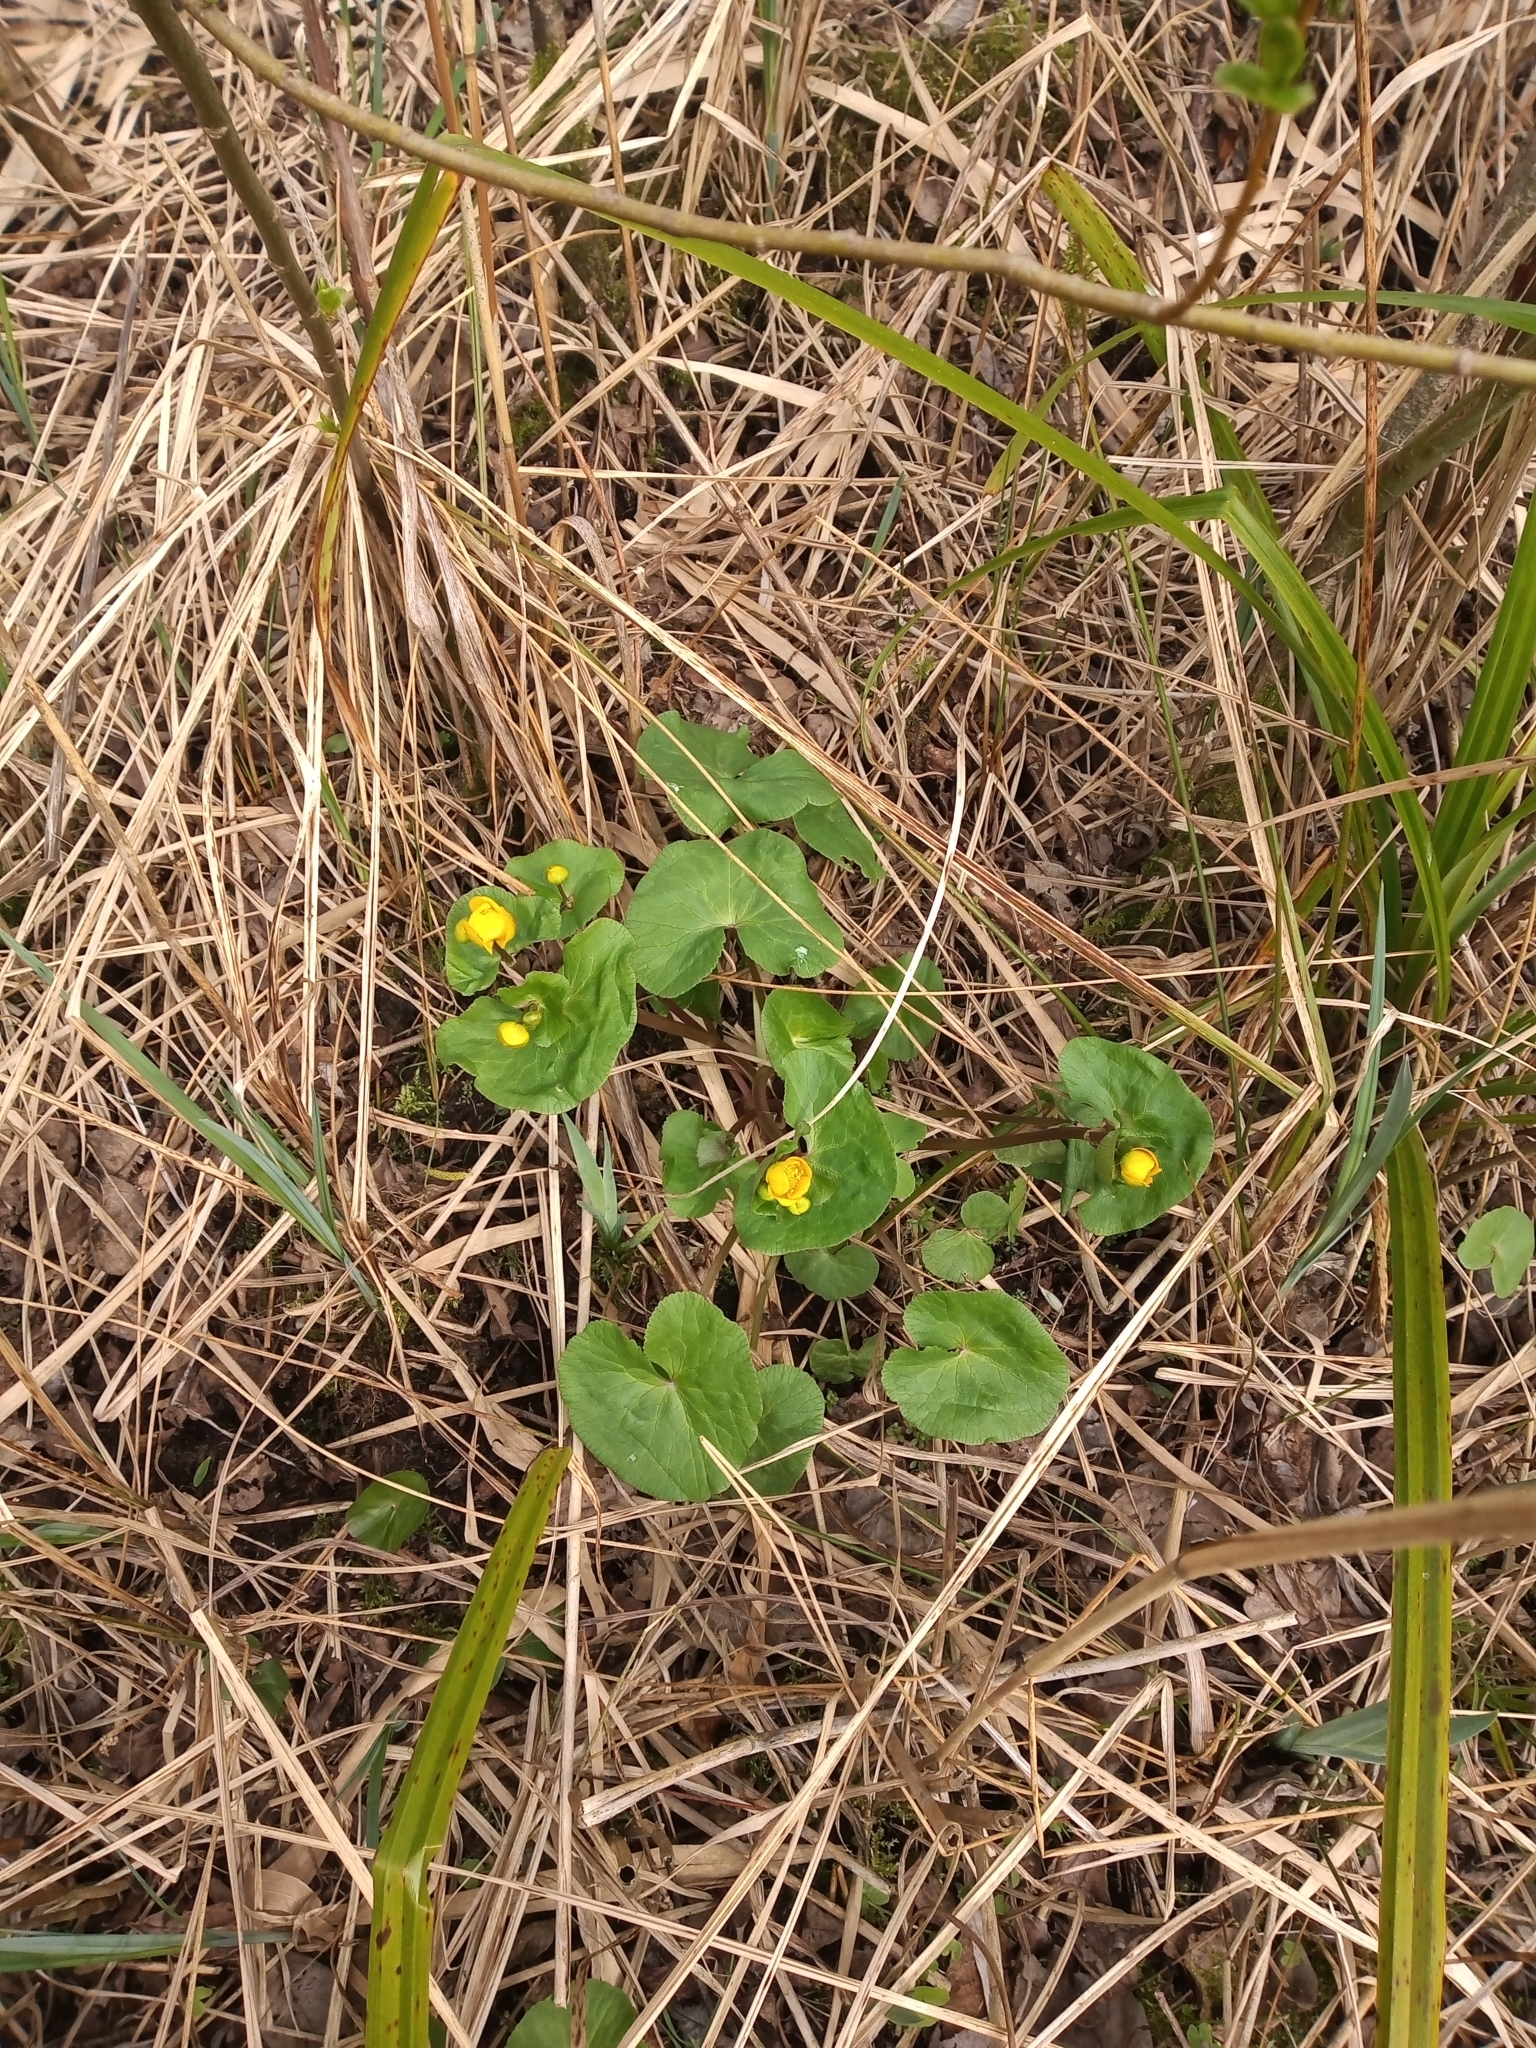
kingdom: Plantae
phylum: Tracheophyta
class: Magnoliopsida
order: Ranunculales
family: Ranunculaceae
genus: Caltha
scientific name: Caltha palustris
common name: Marsh marigold
